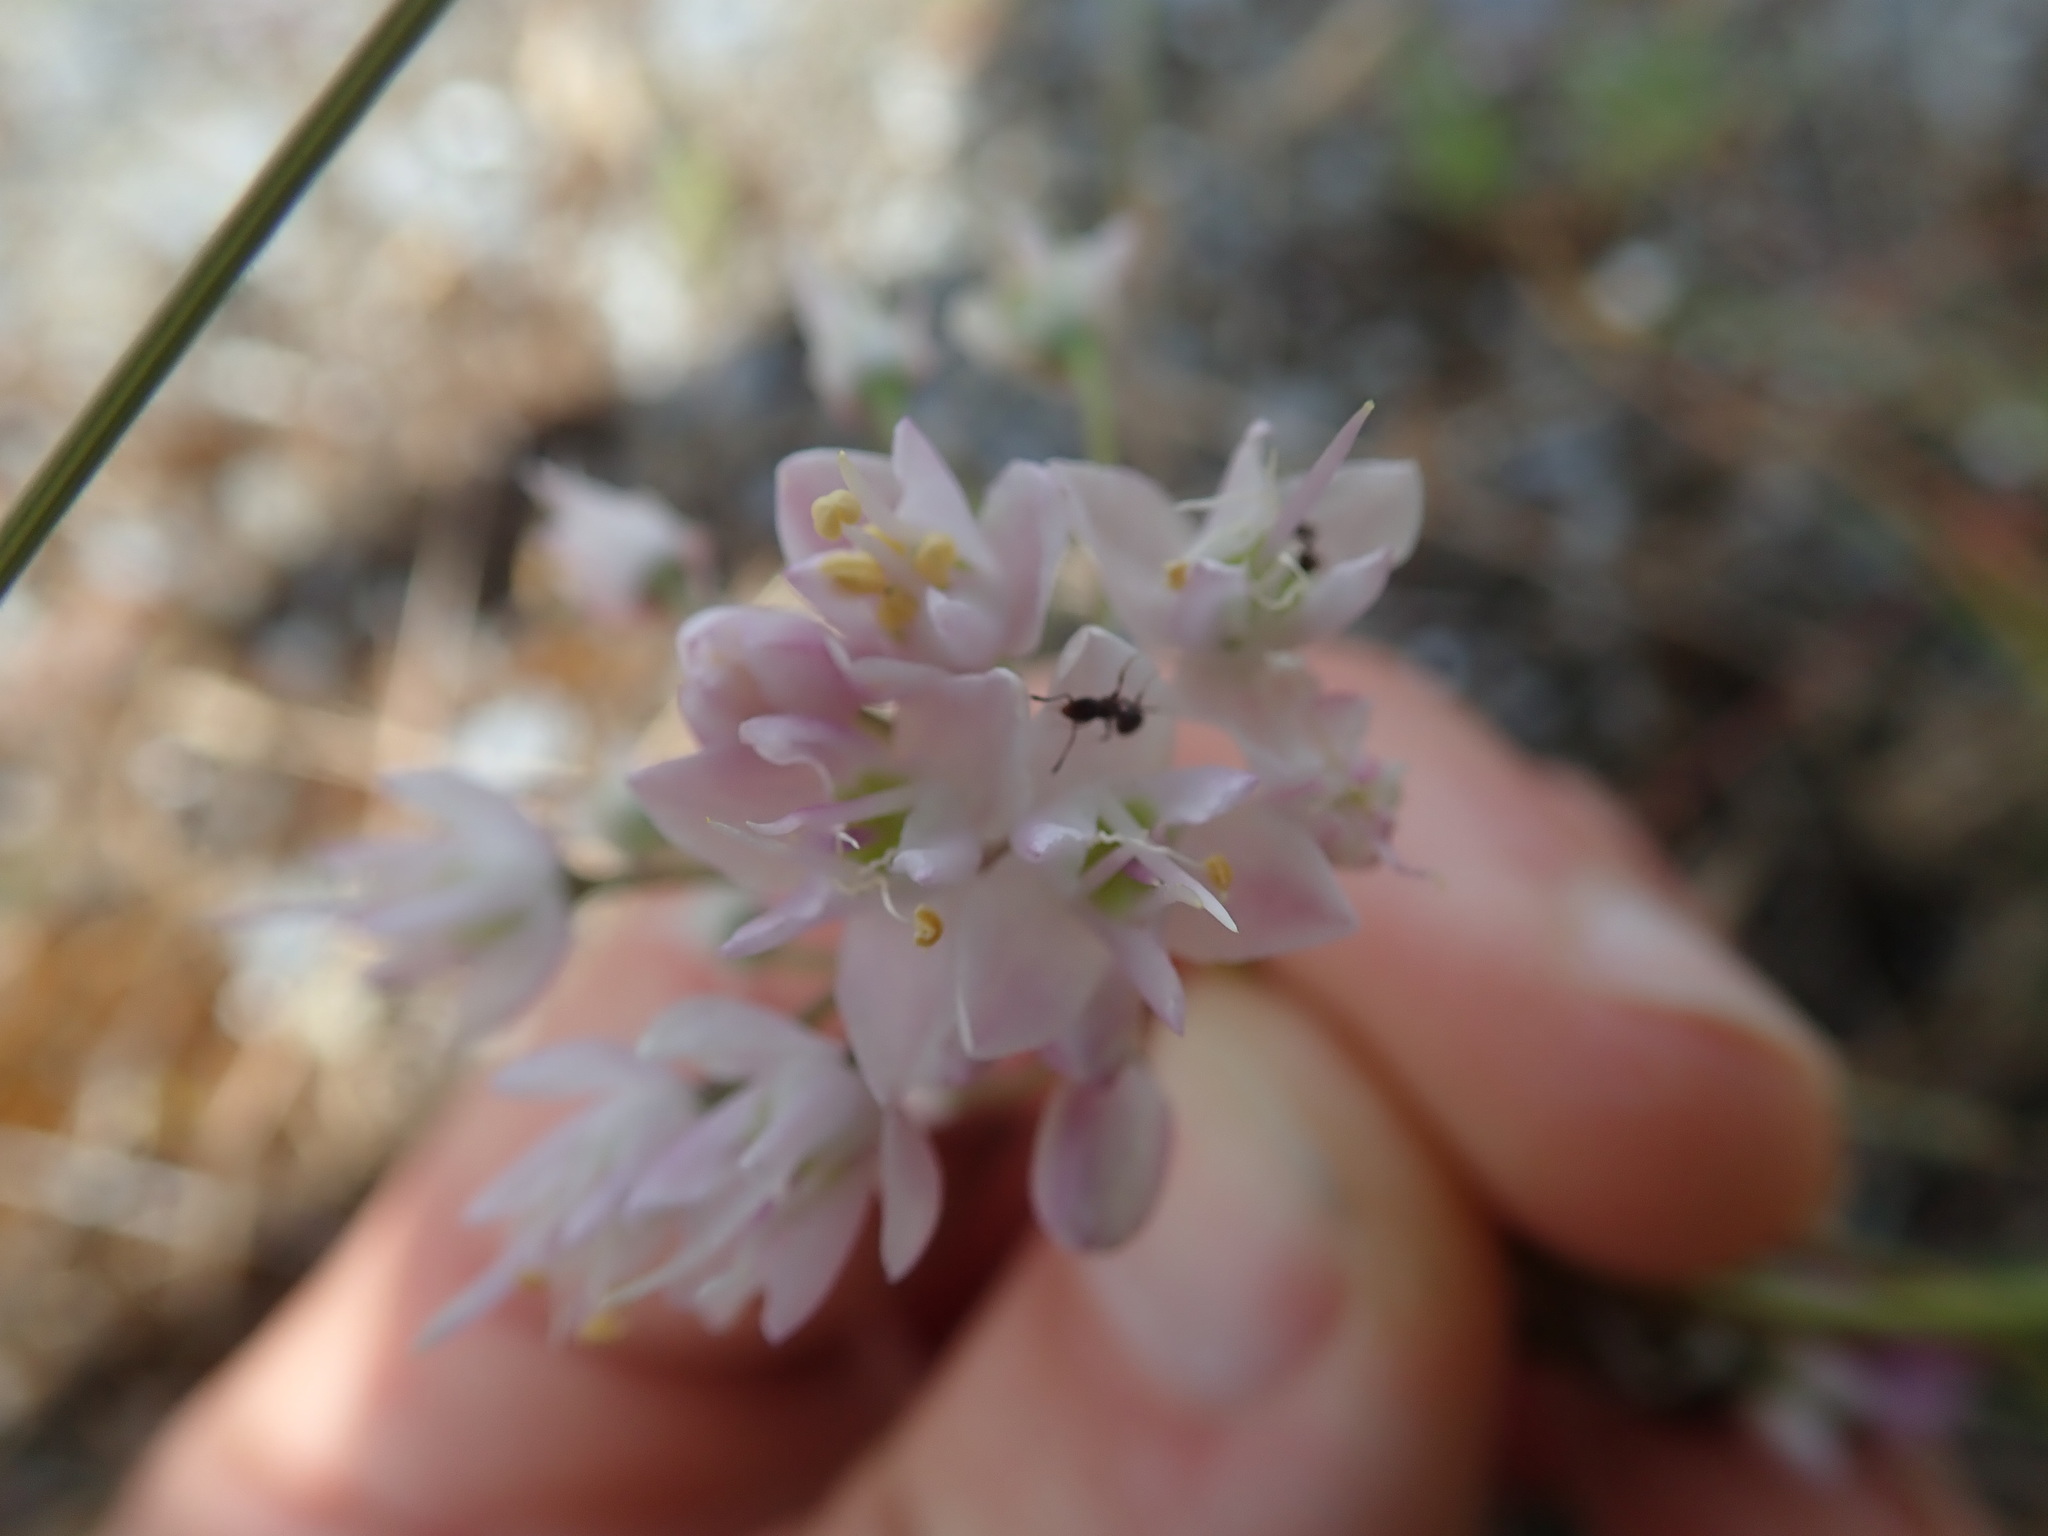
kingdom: Plantae
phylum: Tracheophyta
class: Liliopsida
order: Asparagales
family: Amaryllidaceae
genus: Allium
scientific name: Allium cernuum
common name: Nodding onion
